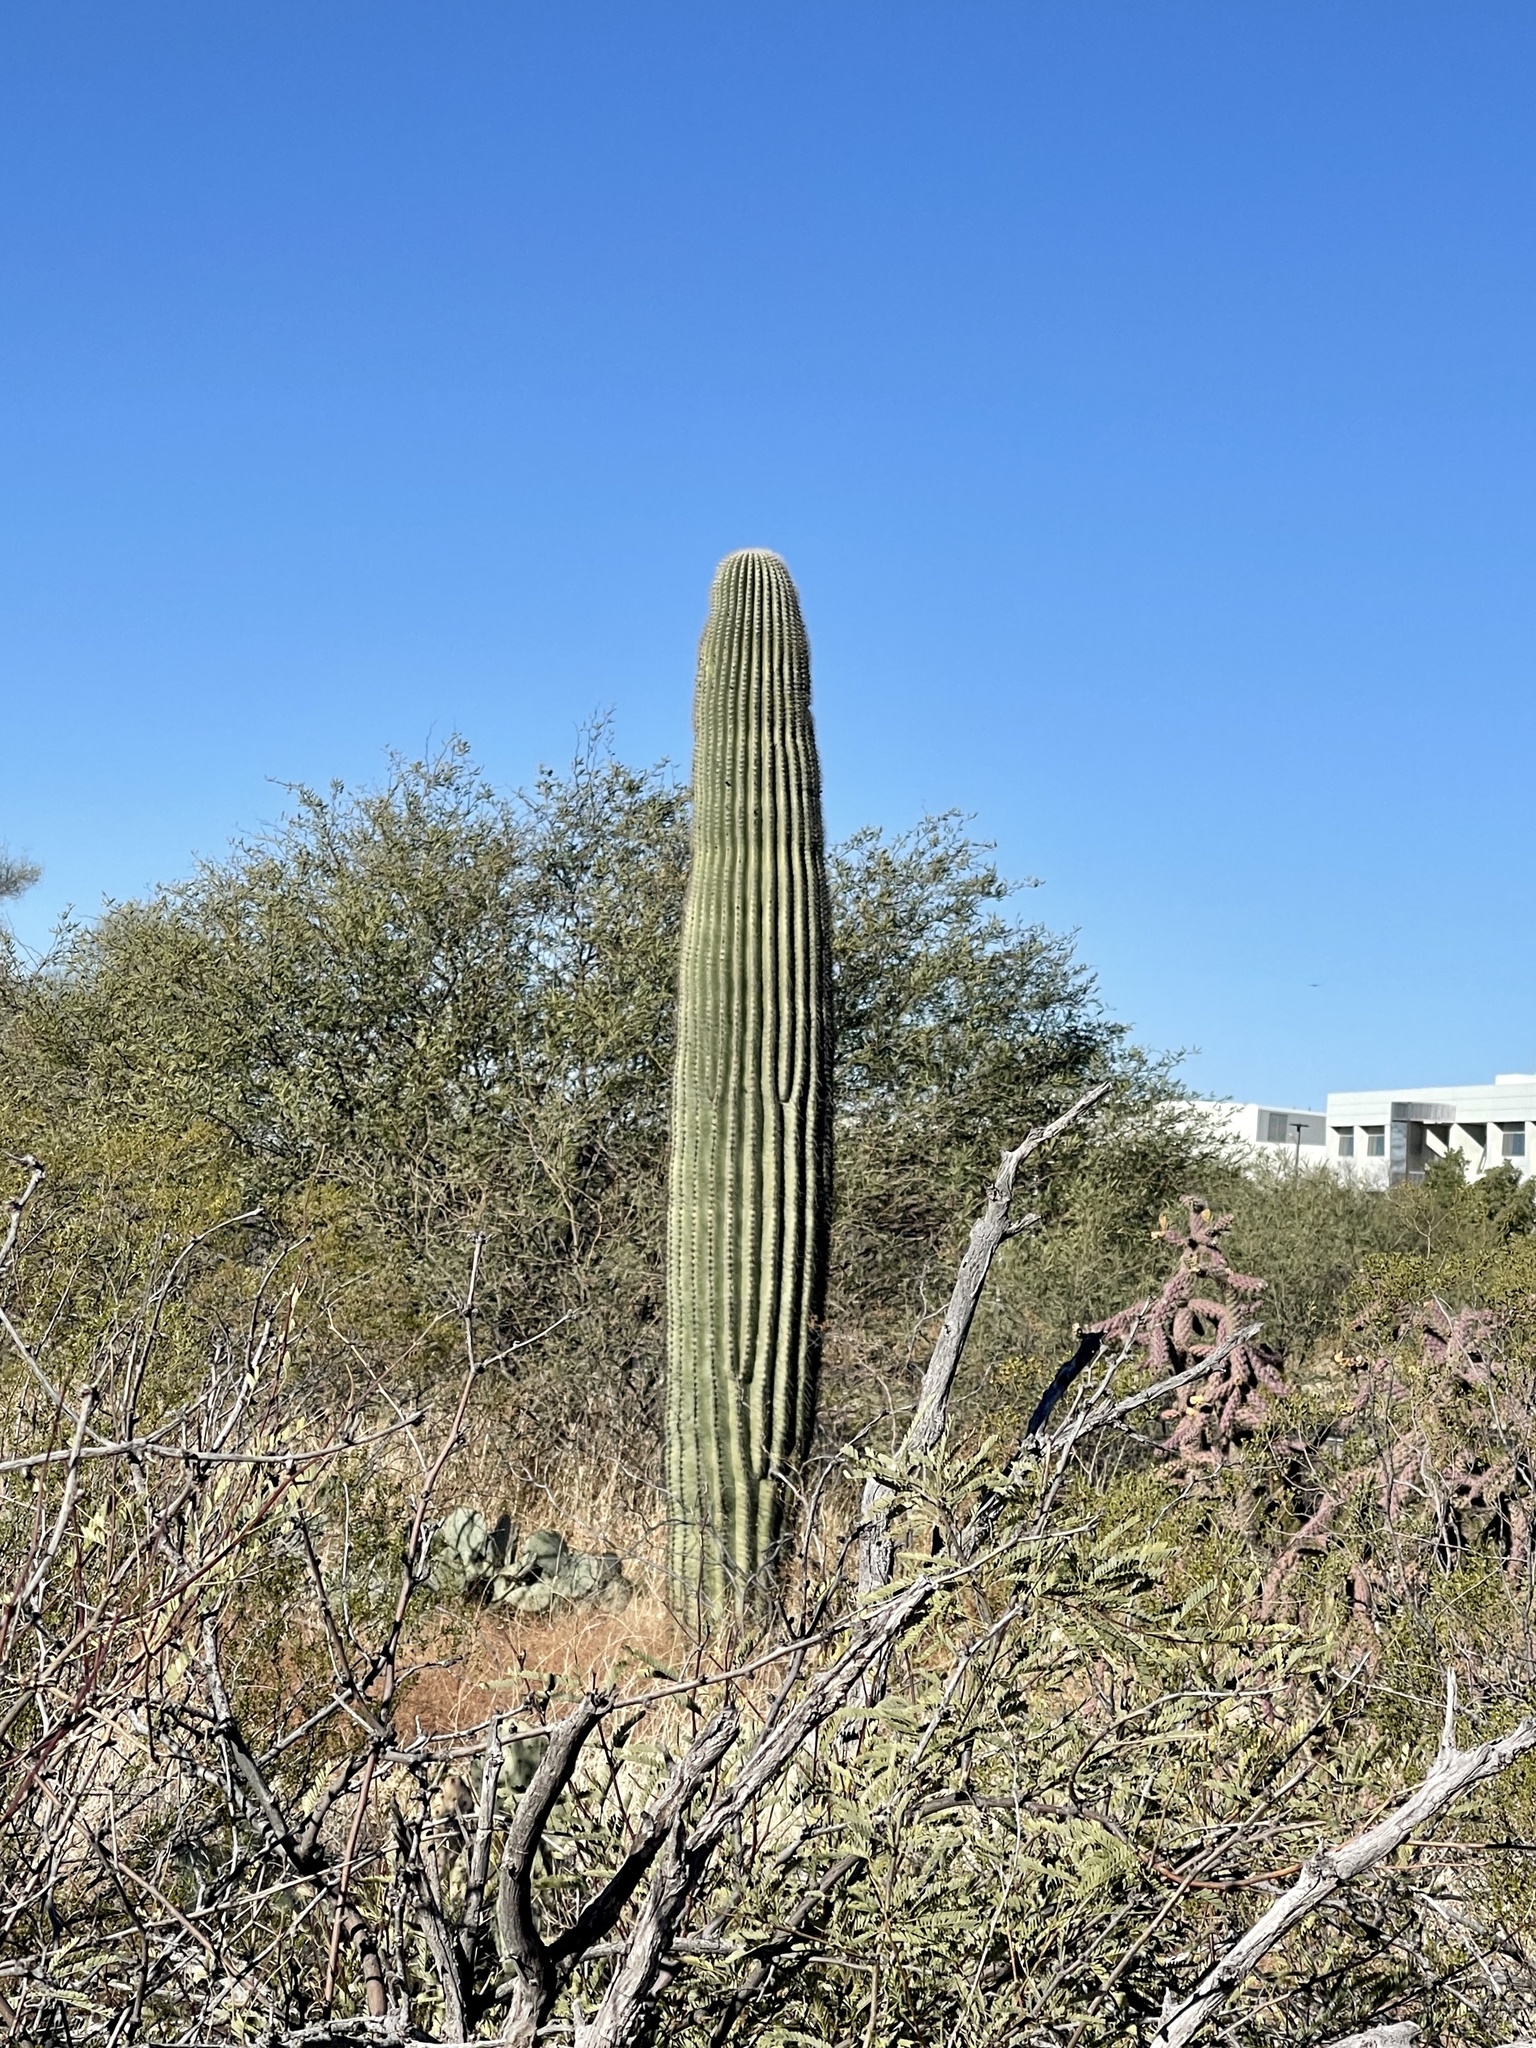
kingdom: Plantae
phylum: Tracheophyta
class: Magnoliopsida
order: Caryophyllales
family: Cactaceae
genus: Carnegiea
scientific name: Carnegiea gigantea
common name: Saguaro
